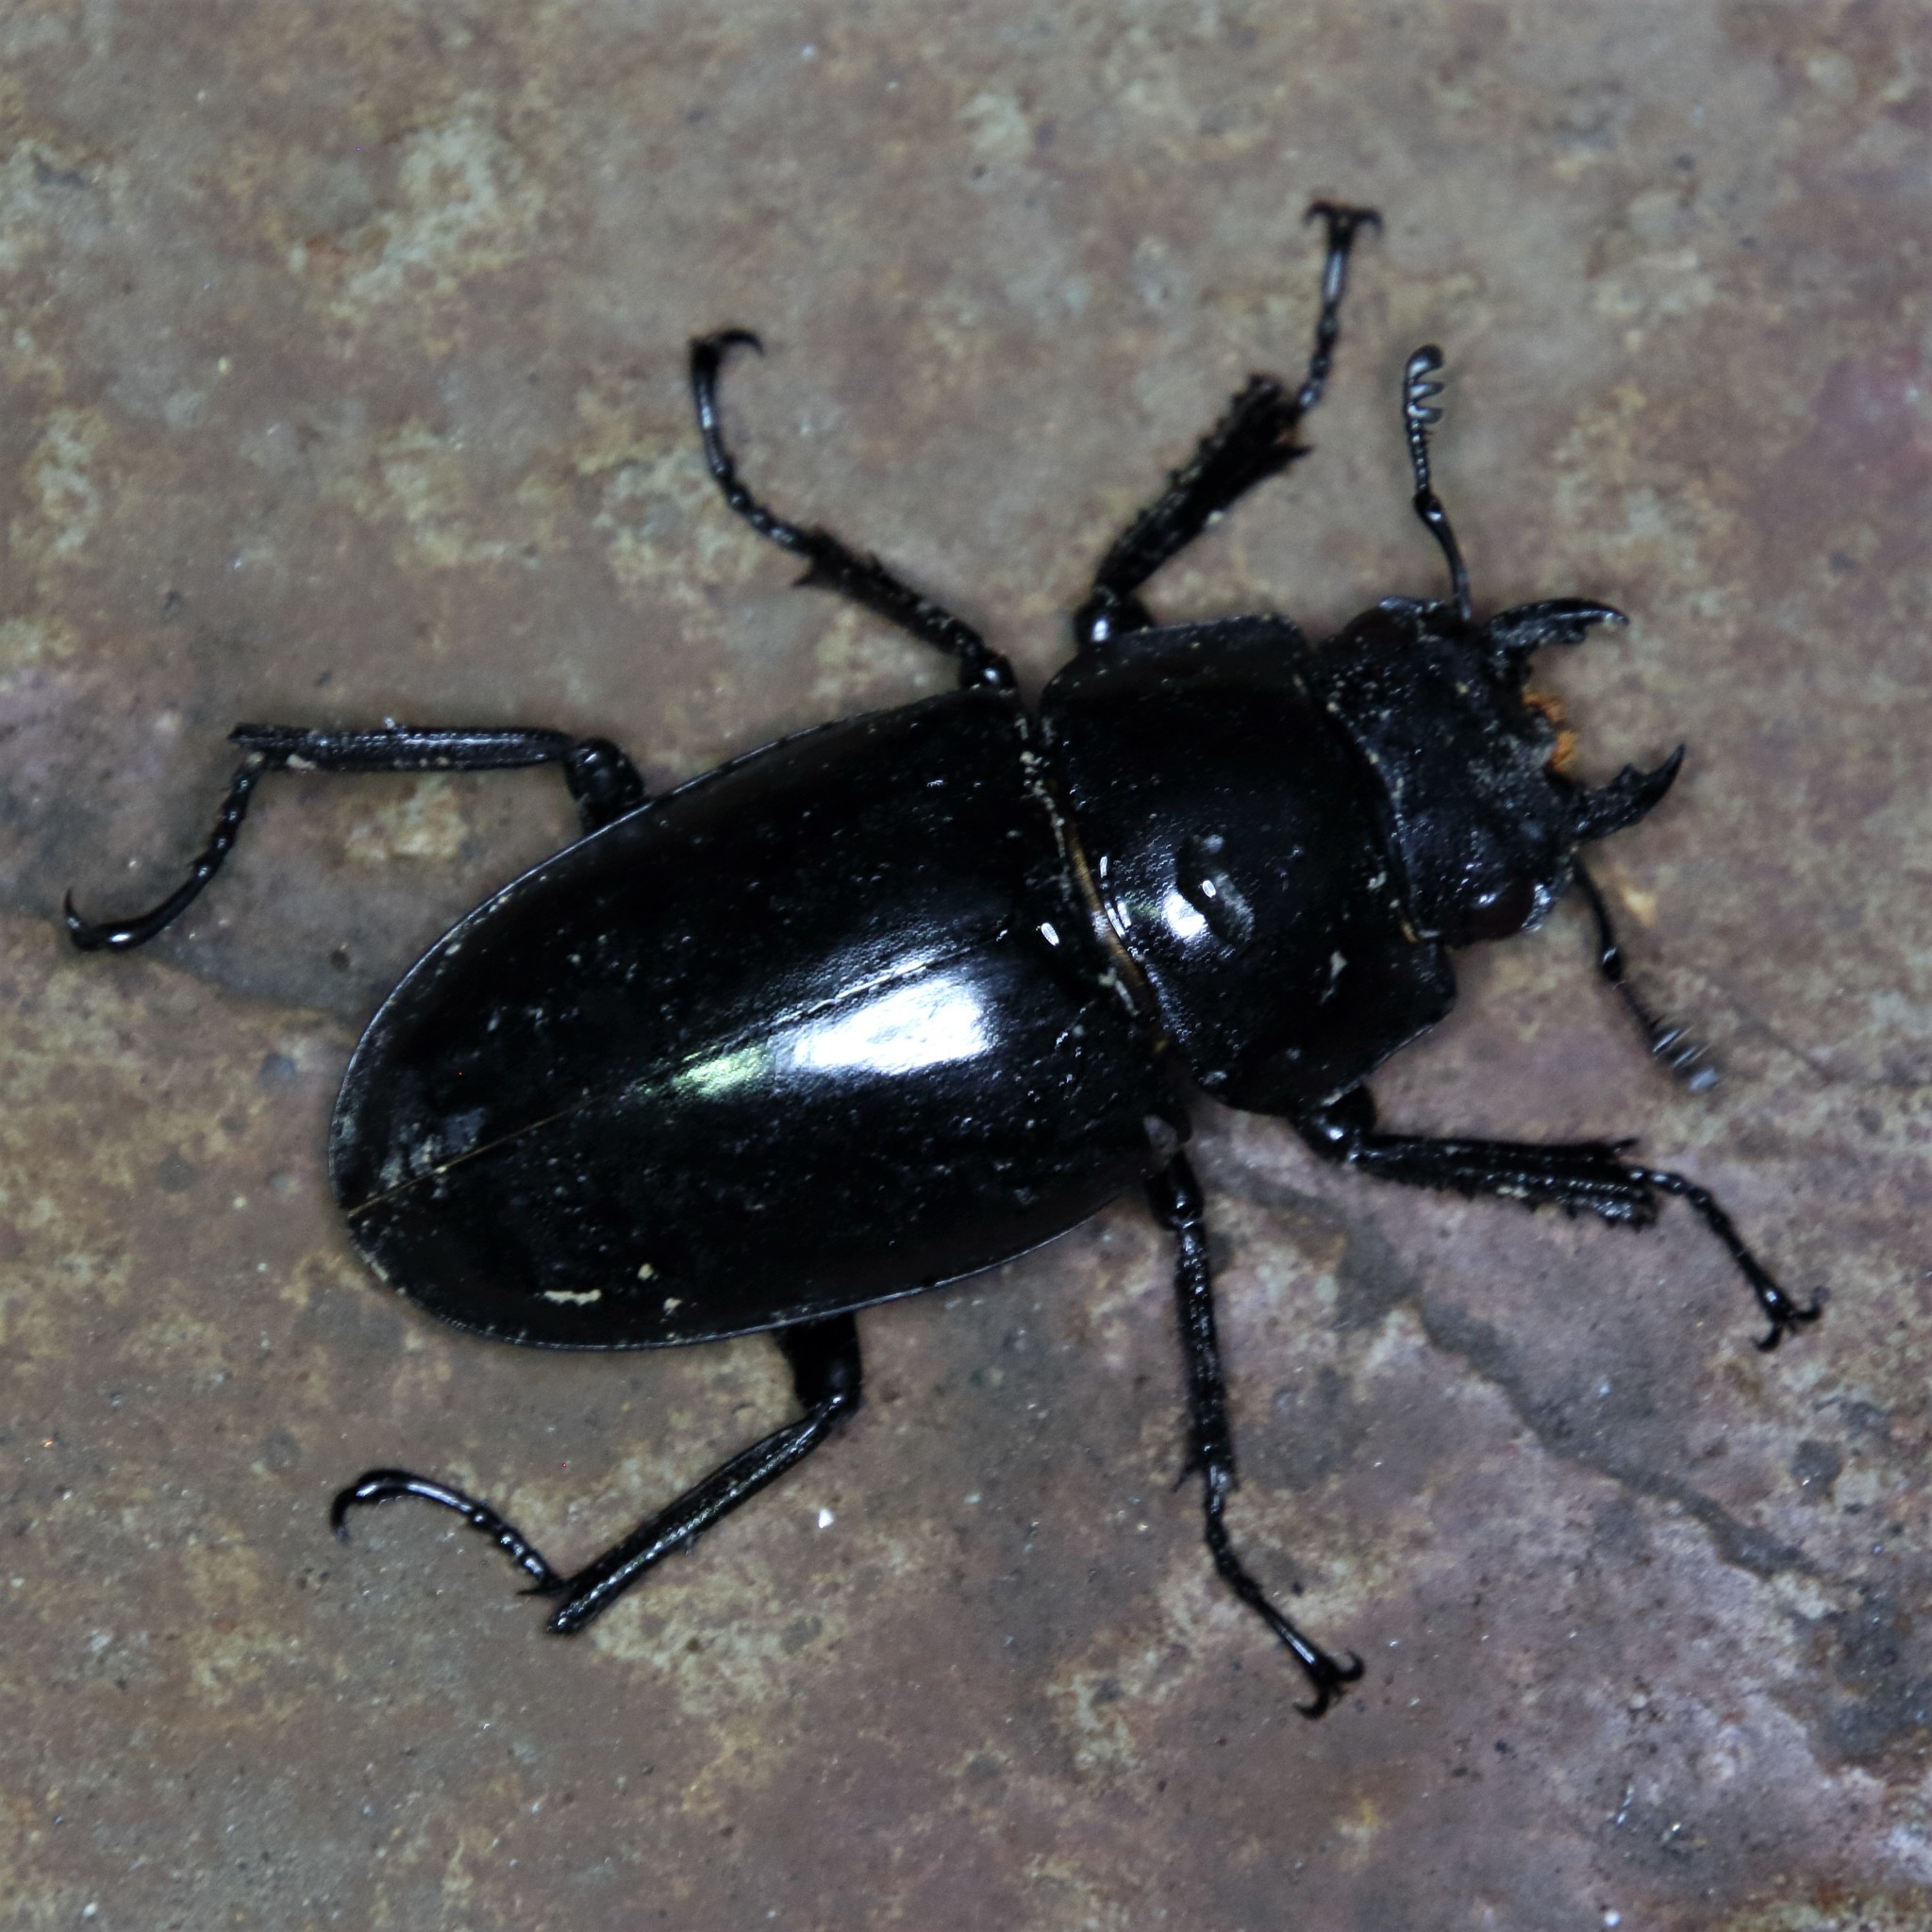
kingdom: Animalia
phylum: Arthropoda
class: Insecta
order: Coleoptera
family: Lucanidae
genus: Prosopocoilus
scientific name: Prosopocoilus girafa
